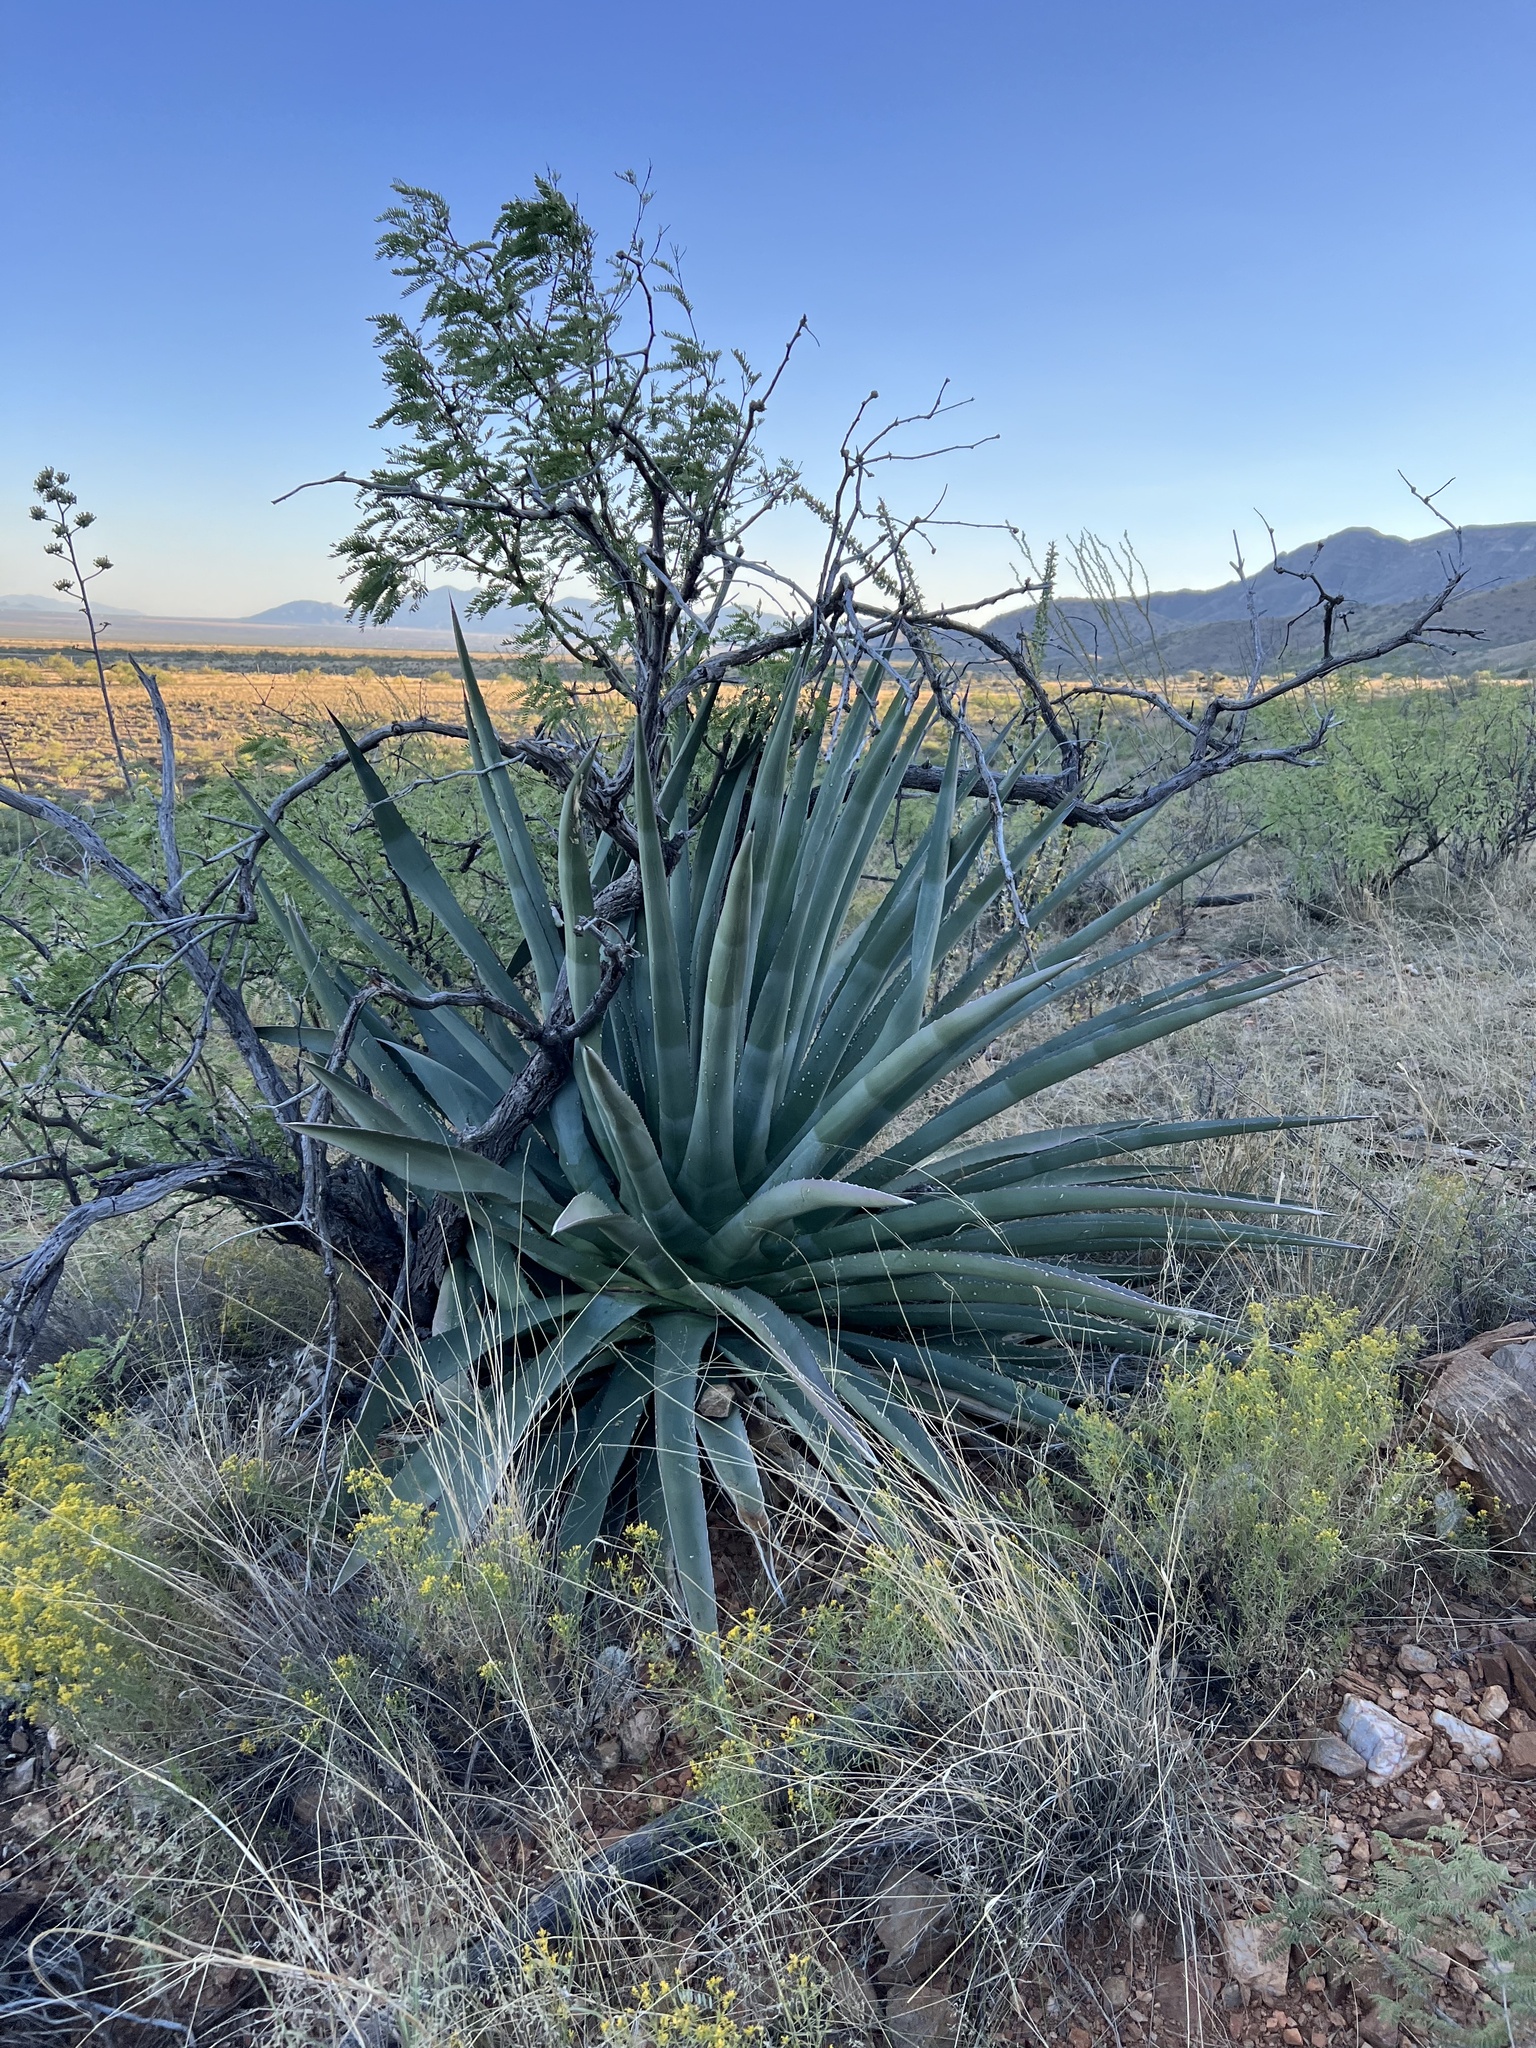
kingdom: Plantae
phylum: Tracheophyta
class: Liliopsida
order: Asparagales
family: Asparagaceae
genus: Agave
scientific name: Agave palmeri
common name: Palmer agave
